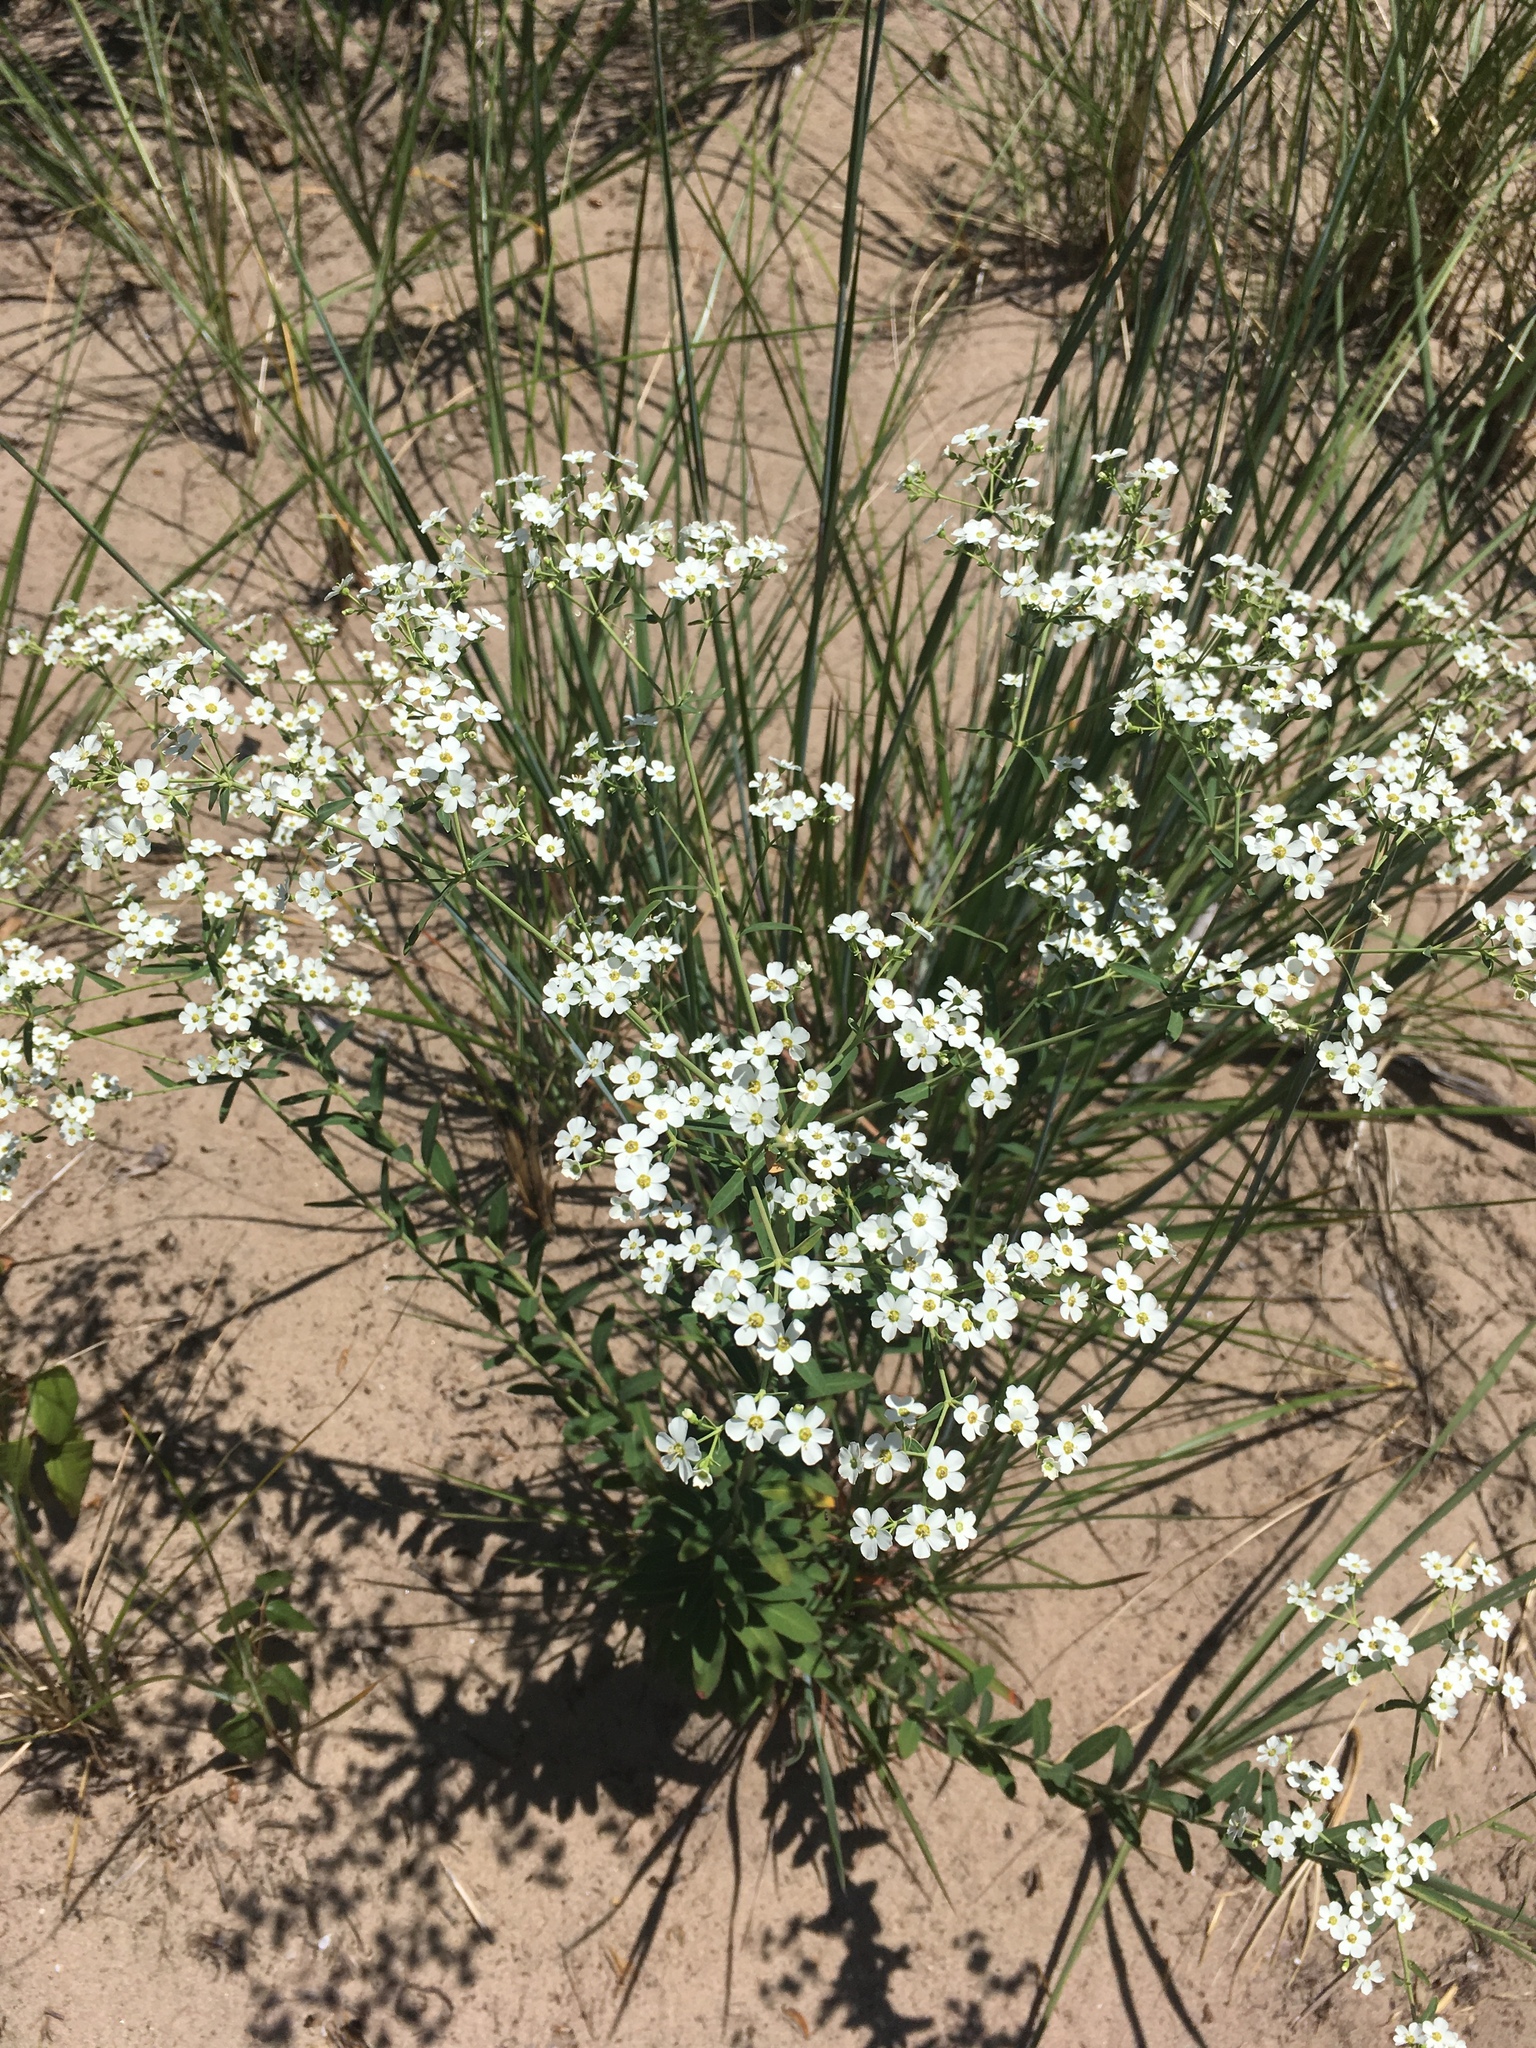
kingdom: Plantae
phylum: Tracheophyta
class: Magnoliopsida
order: Malpighiales
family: Euphorbiaceae
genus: Euphorbia
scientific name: Euphorbia corollata
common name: Flowering spurge
